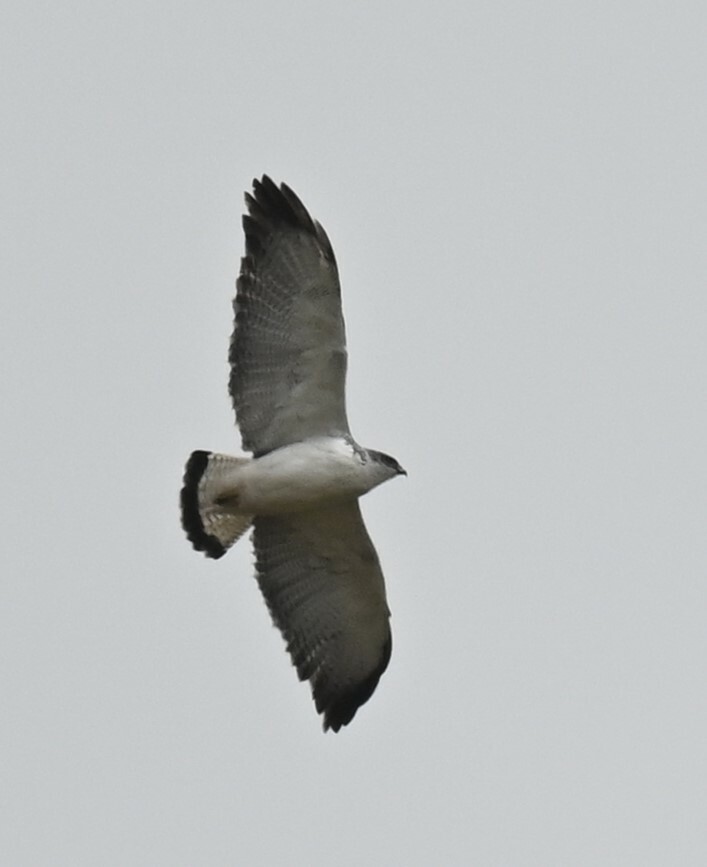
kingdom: Animalia
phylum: Chordata
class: Aves
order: Accipitriformes
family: Accipitridae
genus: Buteo
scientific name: Buteo polyosoma
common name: Variable hawk
